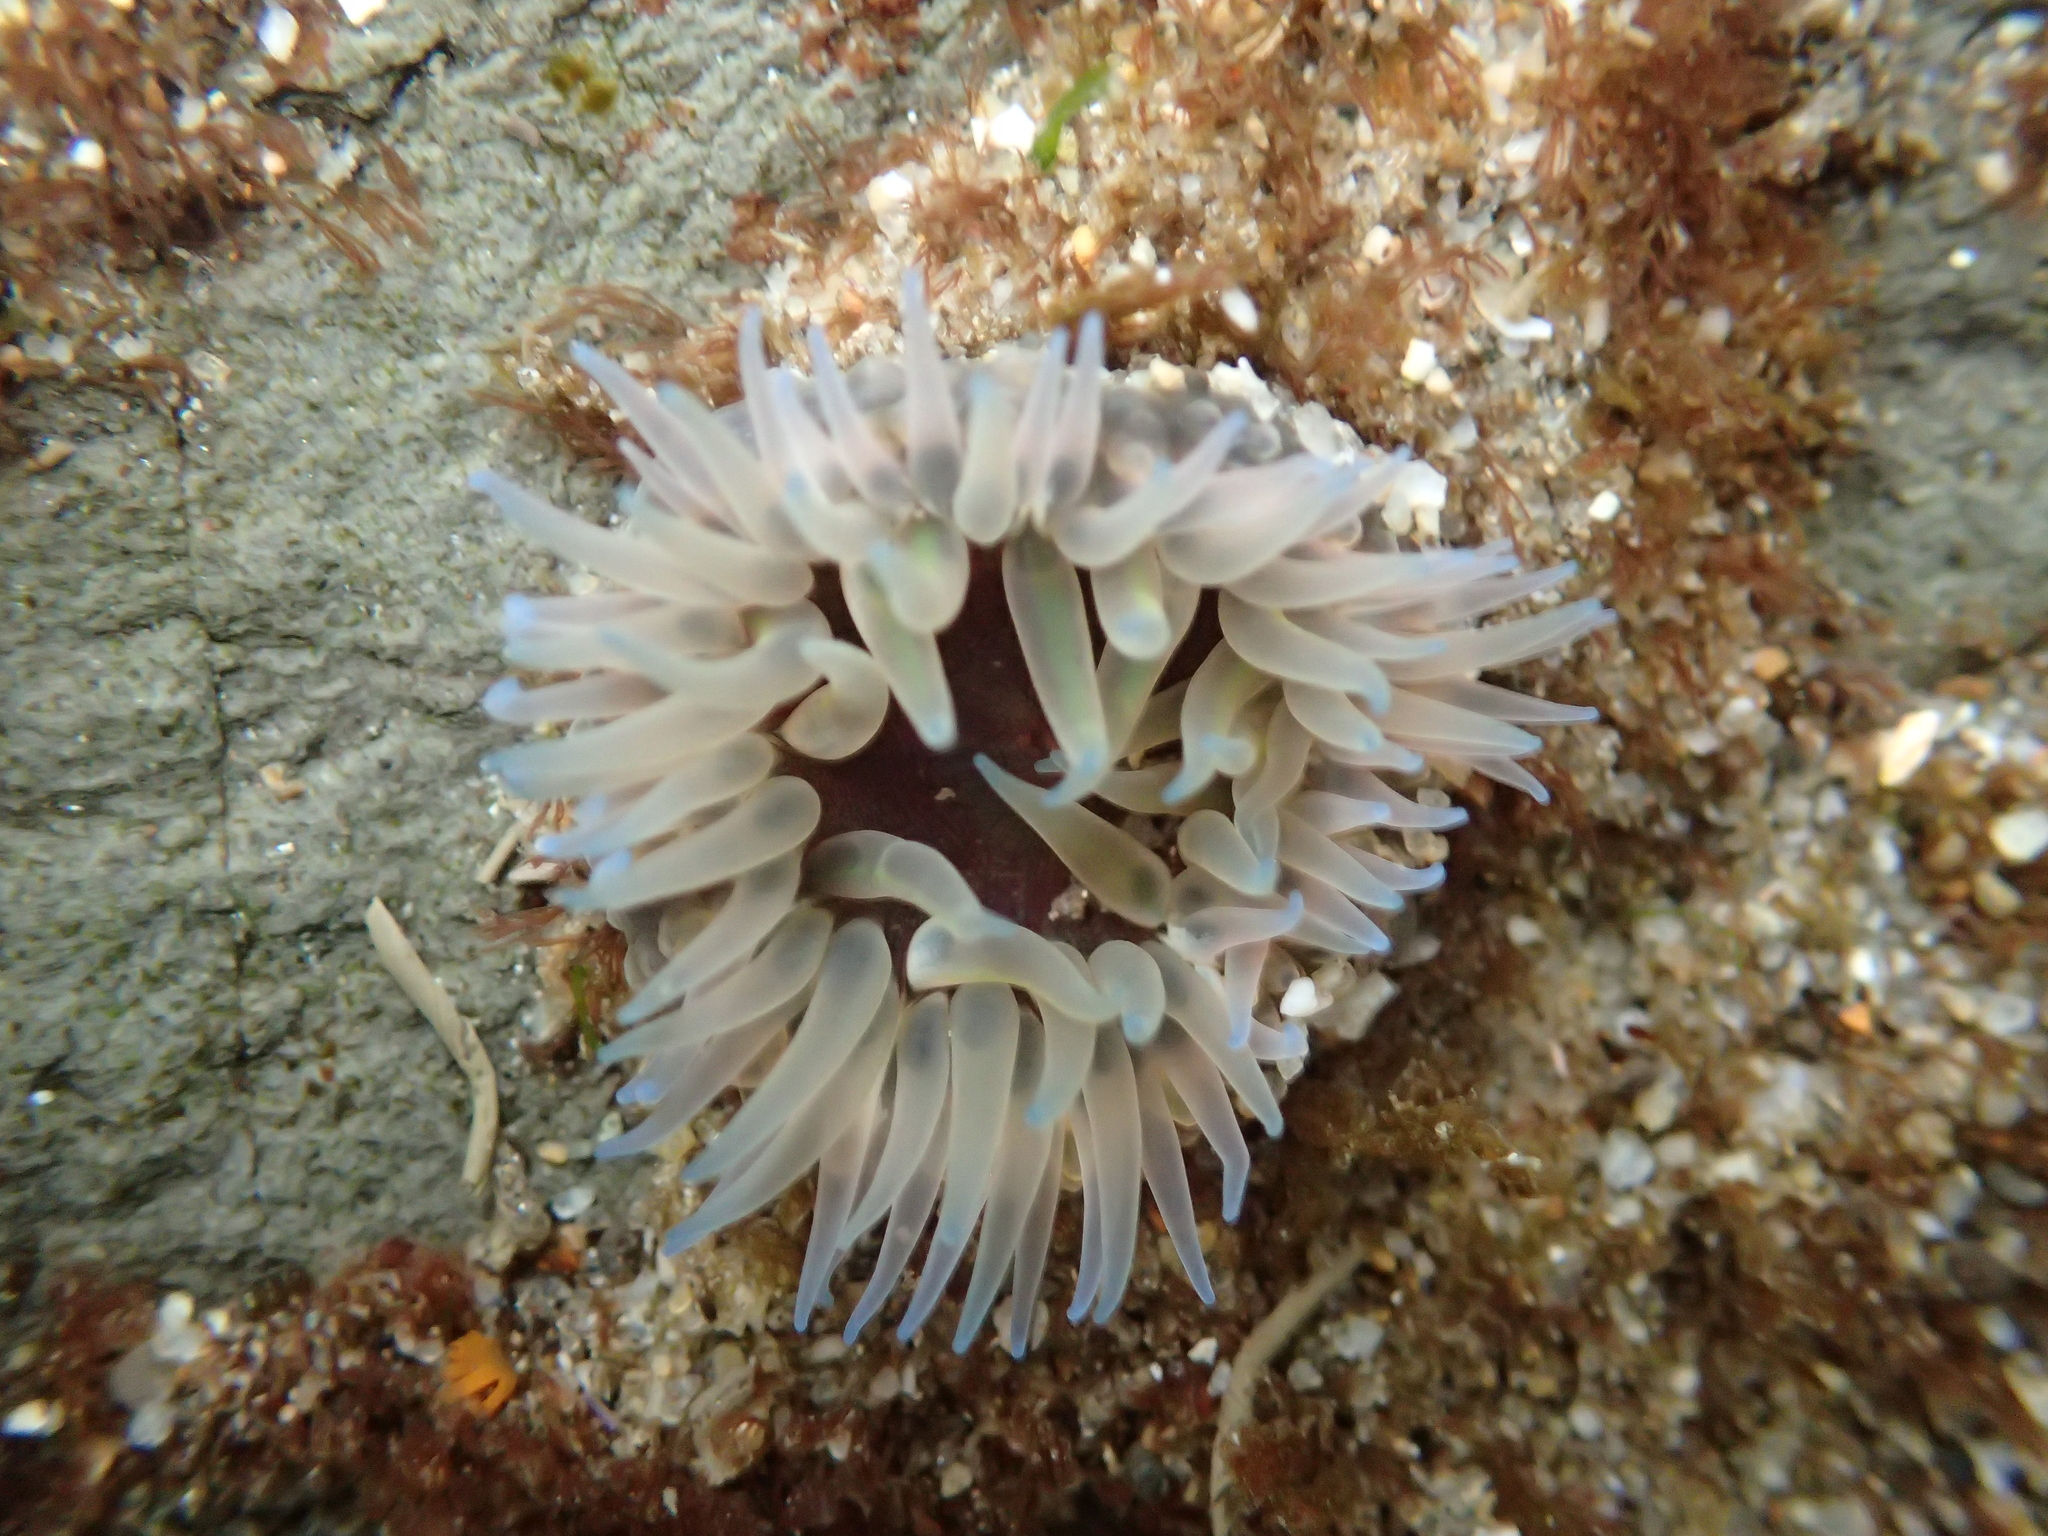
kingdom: Animalia
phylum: Cnidaria
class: Anthozoa
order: Actiniaria
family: Actiniidae
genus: Anthopleura
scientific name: Anthopleura artemisia
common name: Buried sea anemone
